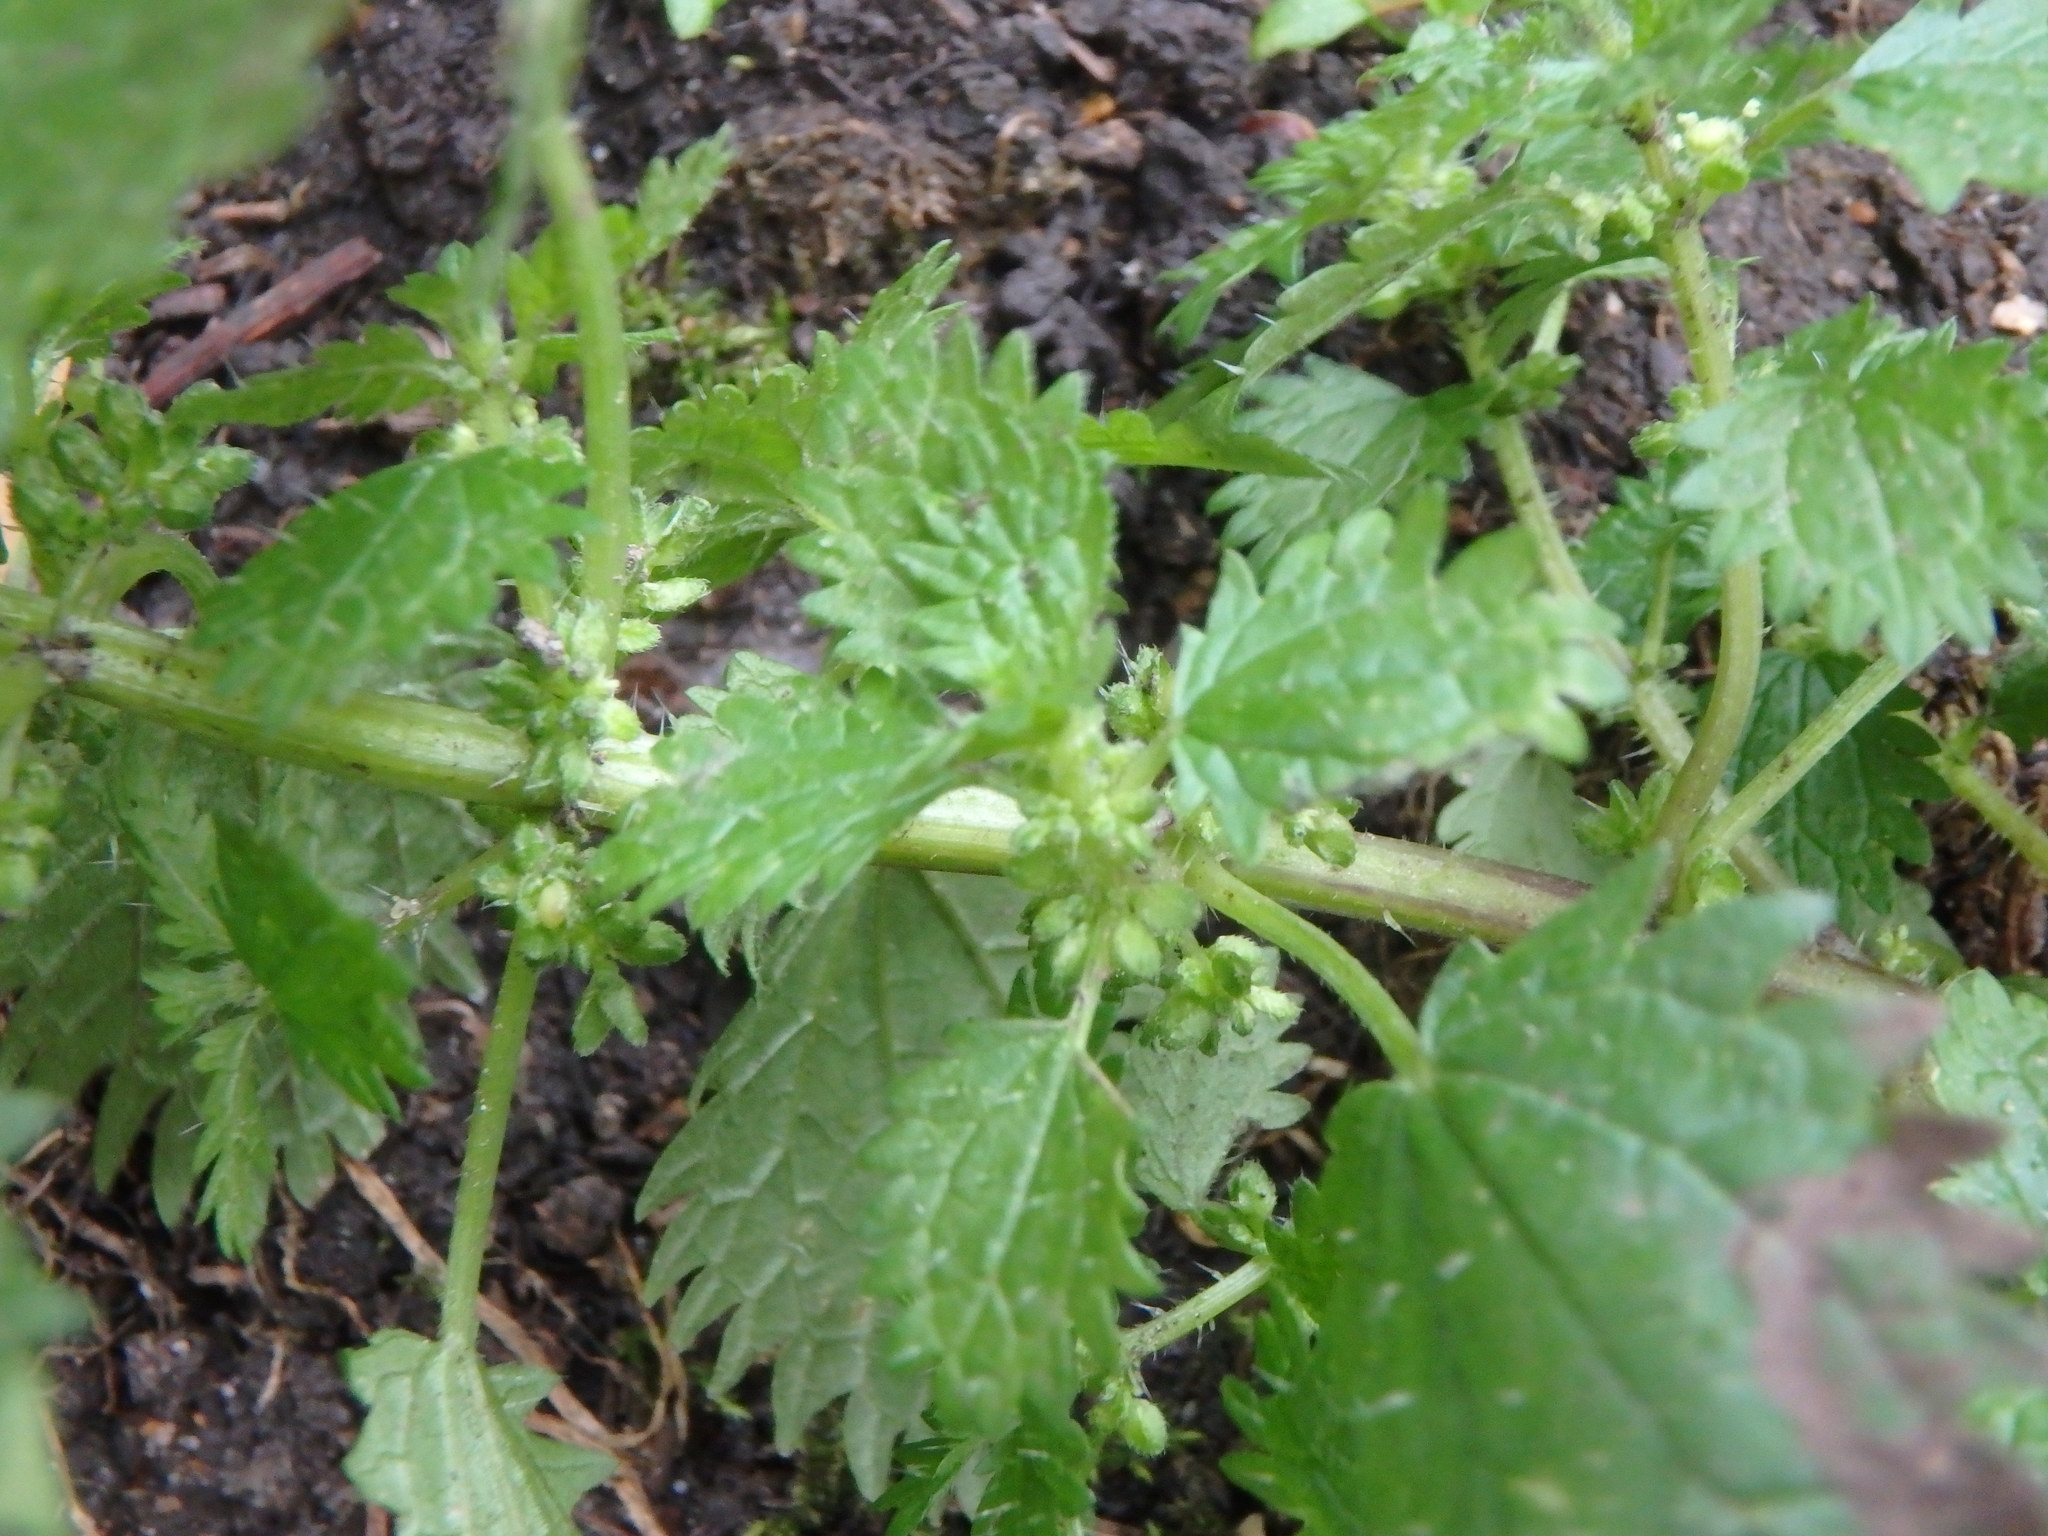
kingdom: Plantae
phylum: Tracheophyta
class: Magnoliopsida
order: Rosales
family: Urticaceae
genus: Urtica
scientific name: Urtica urens
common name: Dwarf nettle
